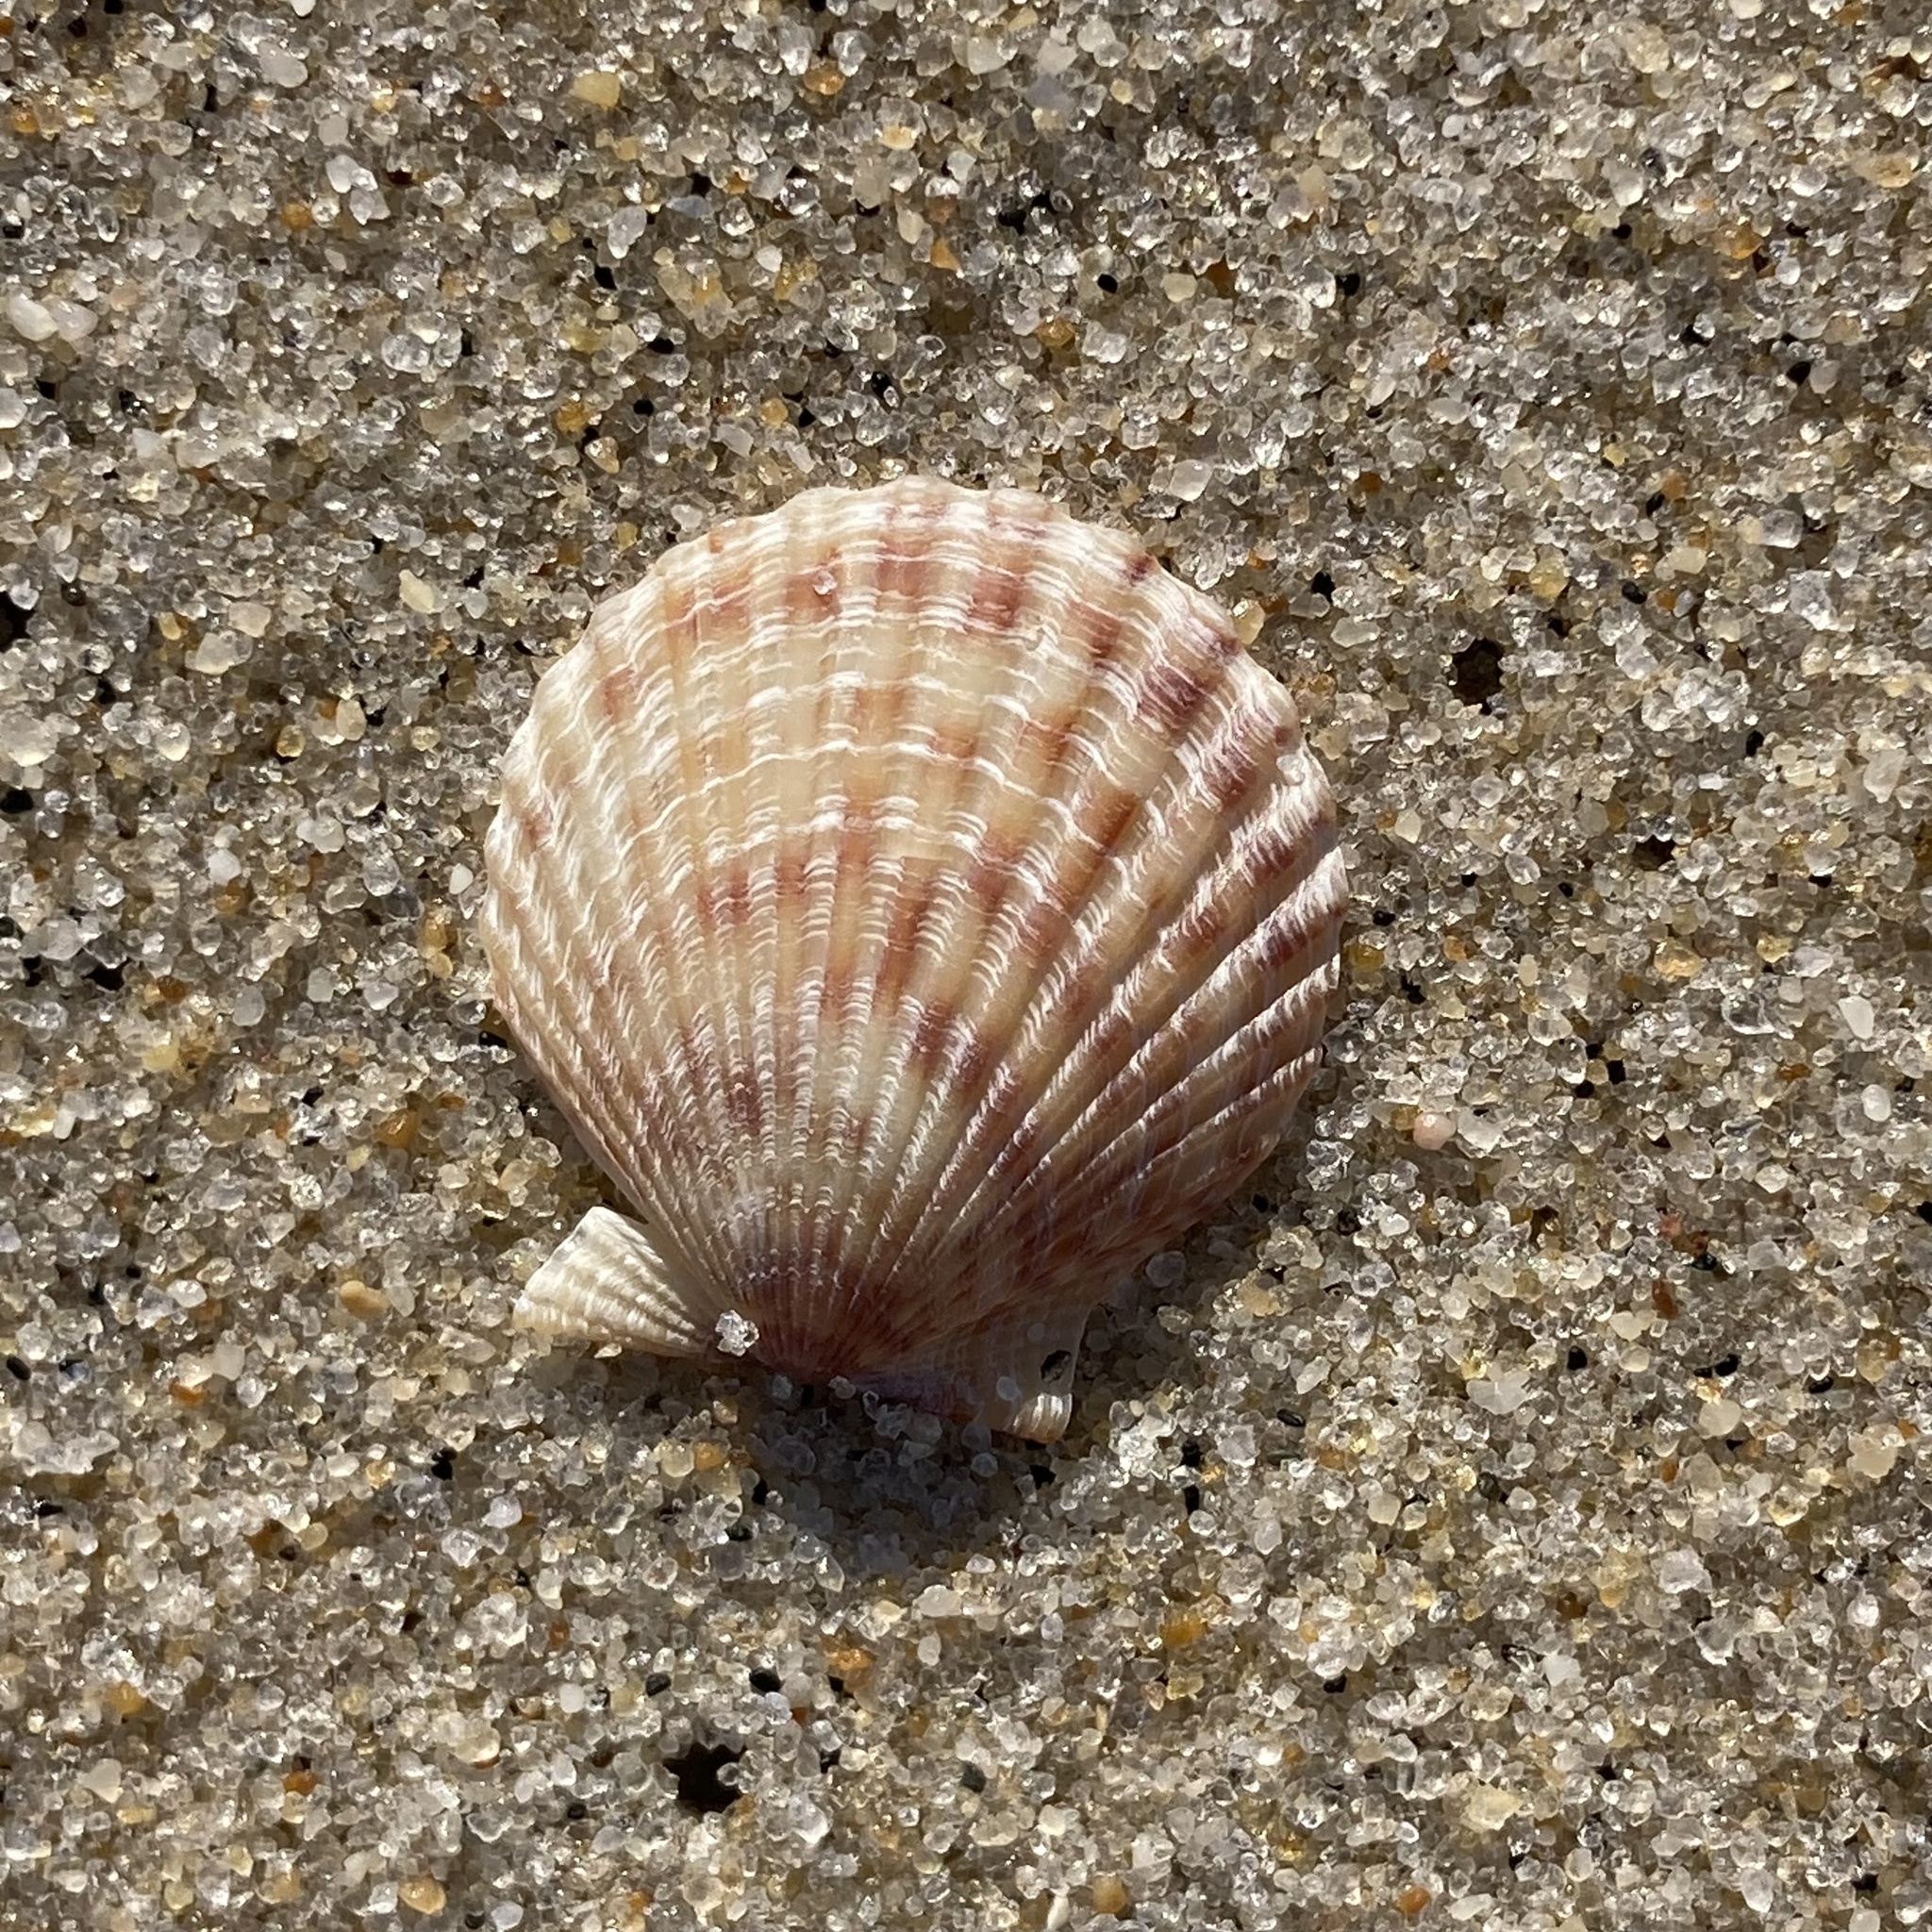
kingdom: Animalia
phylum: Mollusca
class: Bivalvia
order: Pectinida
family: Pectinidae
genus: Argopecten
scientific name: Argopecten irradians
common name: Atlantic bay scallop
